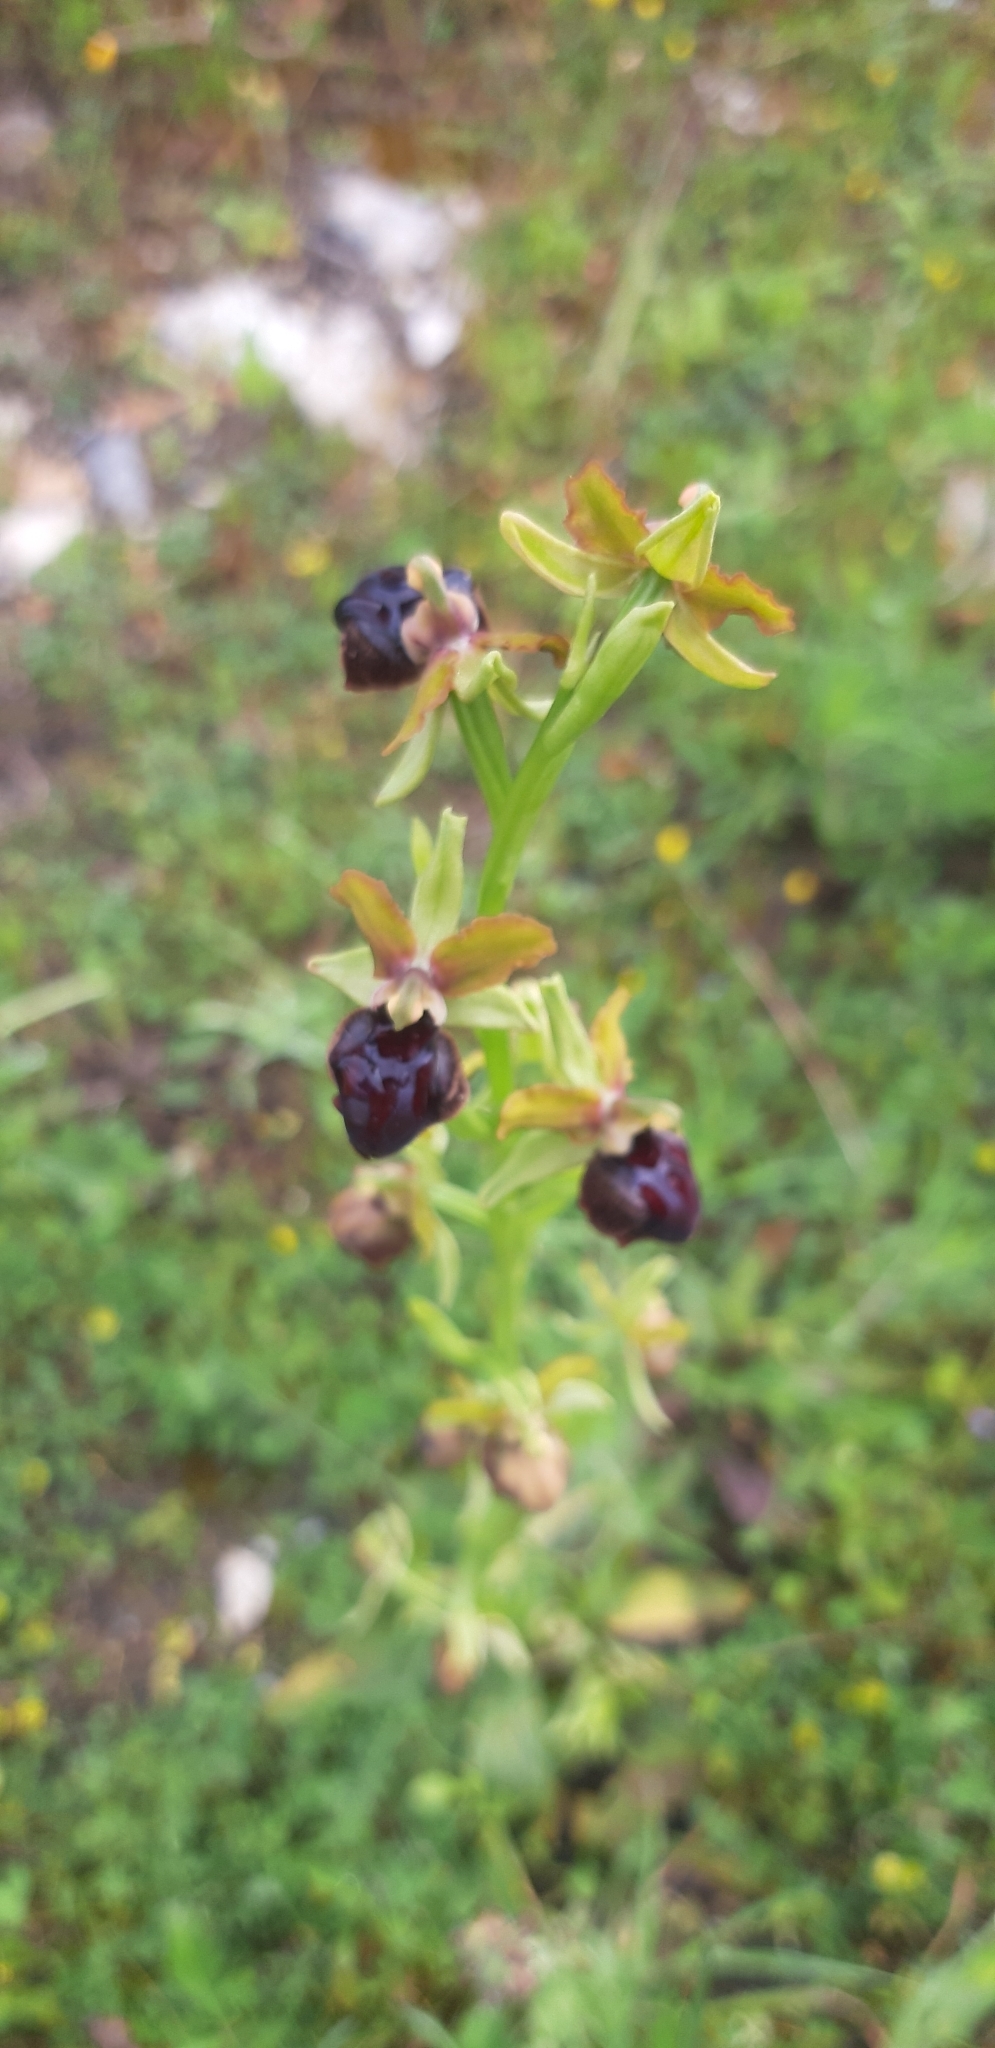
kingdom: Plantae
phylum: Tracheophyta
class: Liliopsida
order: Asparagales
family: Orchidaceae
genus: Ophrys
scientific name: Ophrys sphegodes
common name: Early spider-orchid
